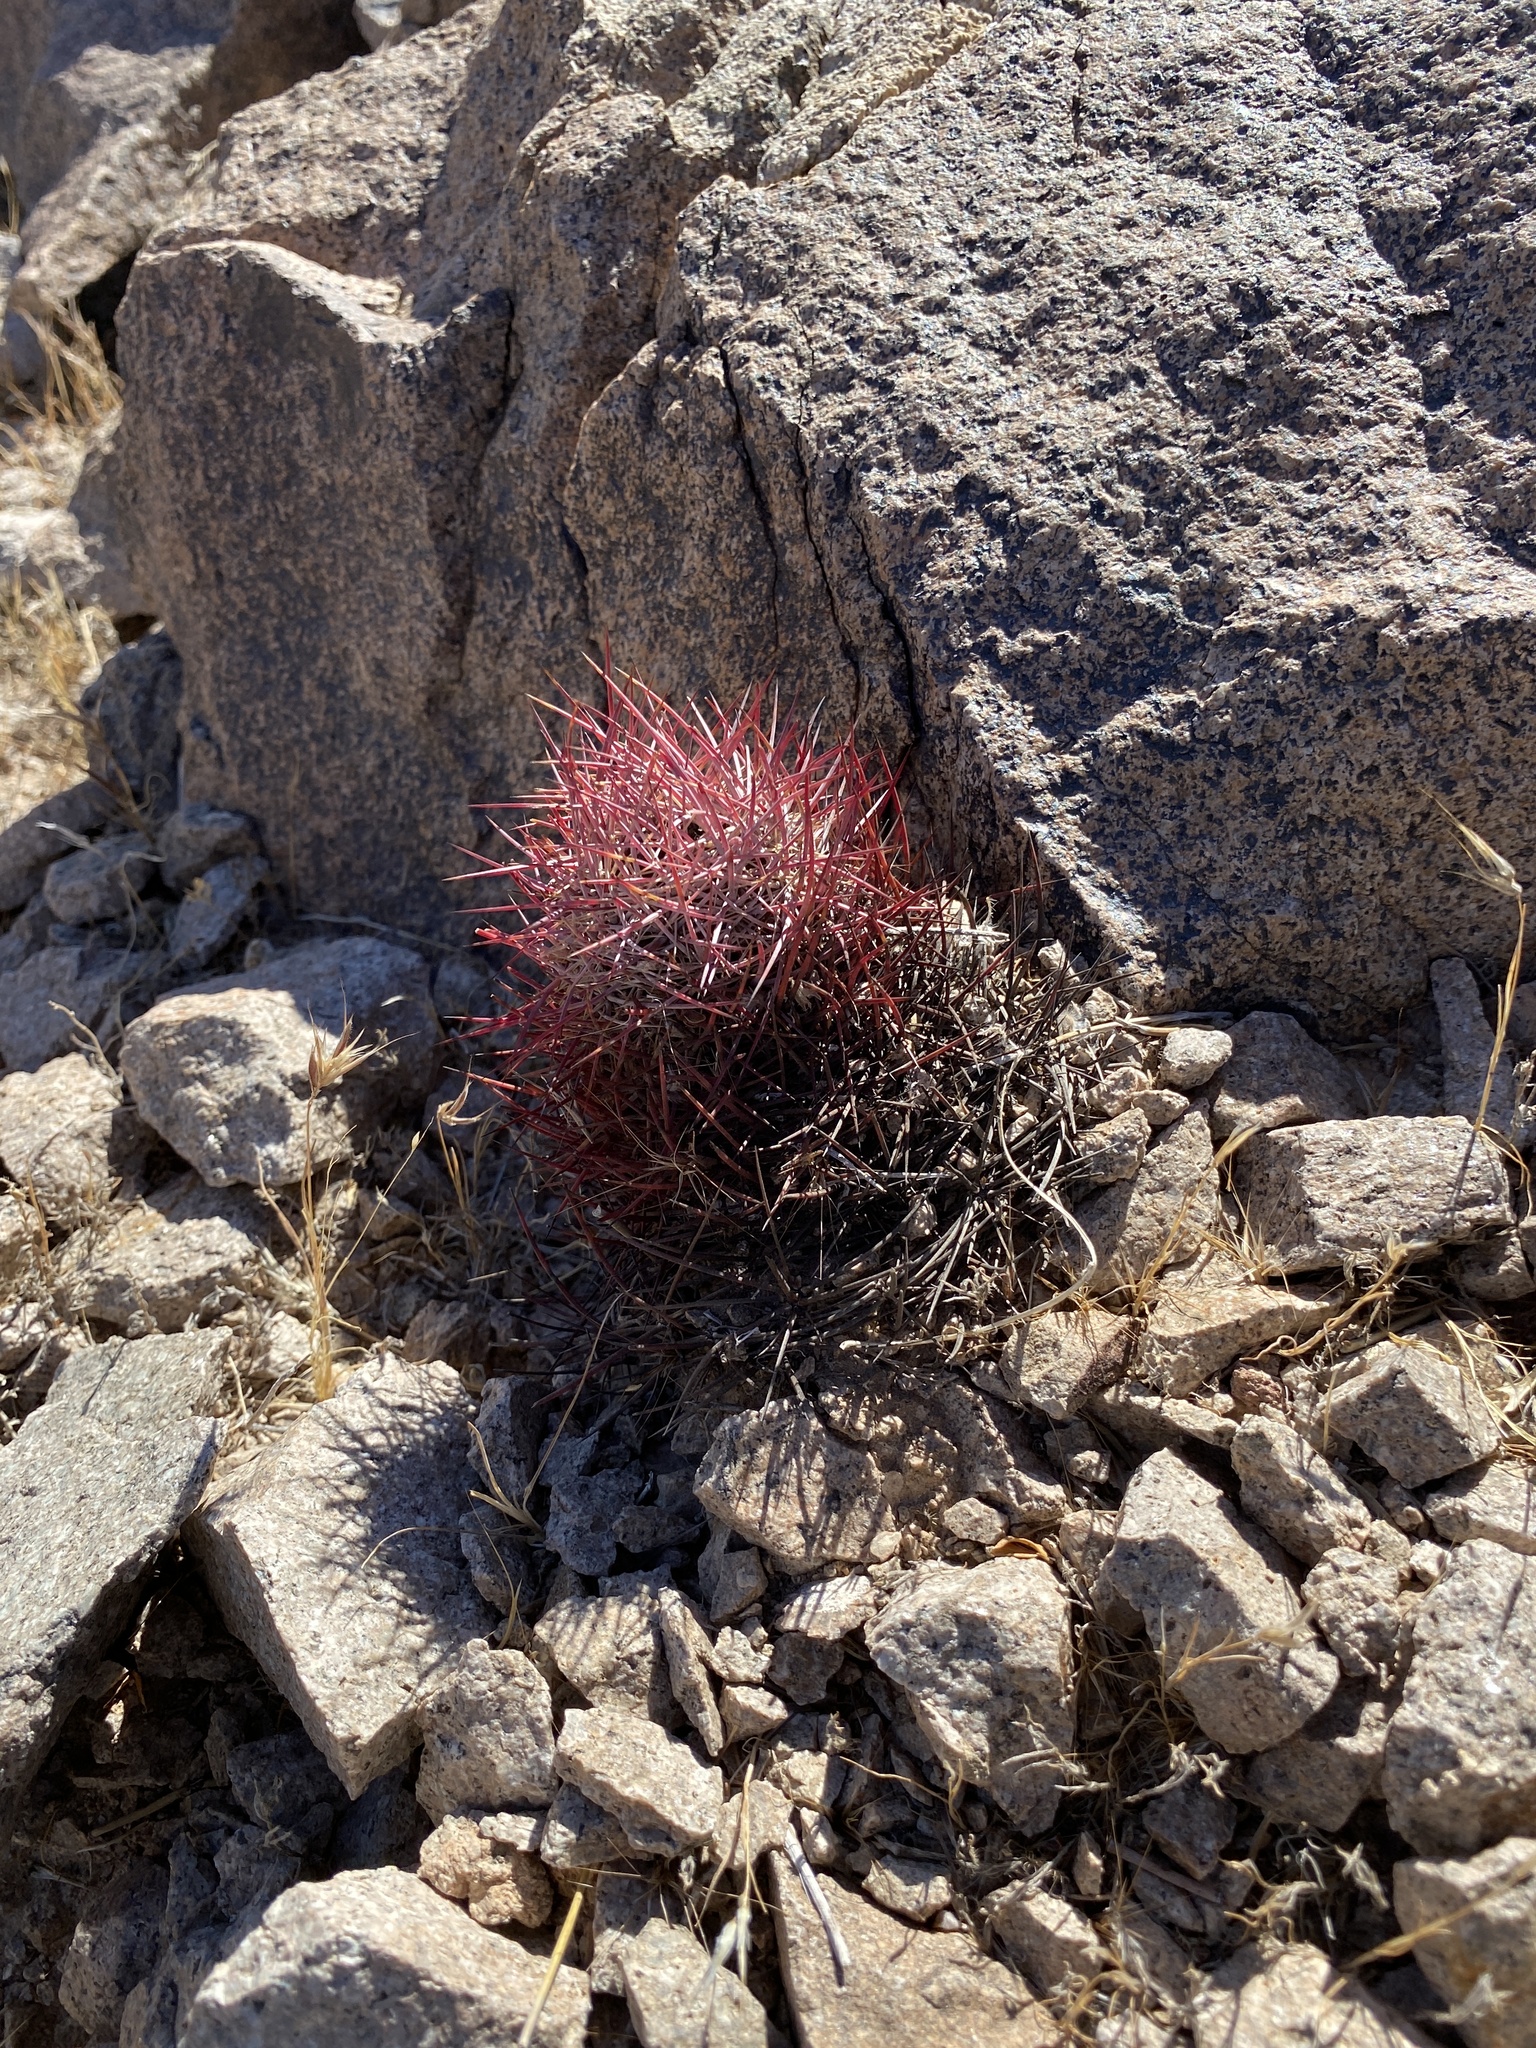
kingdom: Plantae
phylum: Tracheophyta
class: Magnoliopsida
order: Caryophyllales
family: Cactaceae
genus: Sclerocactus
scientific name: Sclerocactus johnsonii
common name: Eight-spine fishhook cactus
